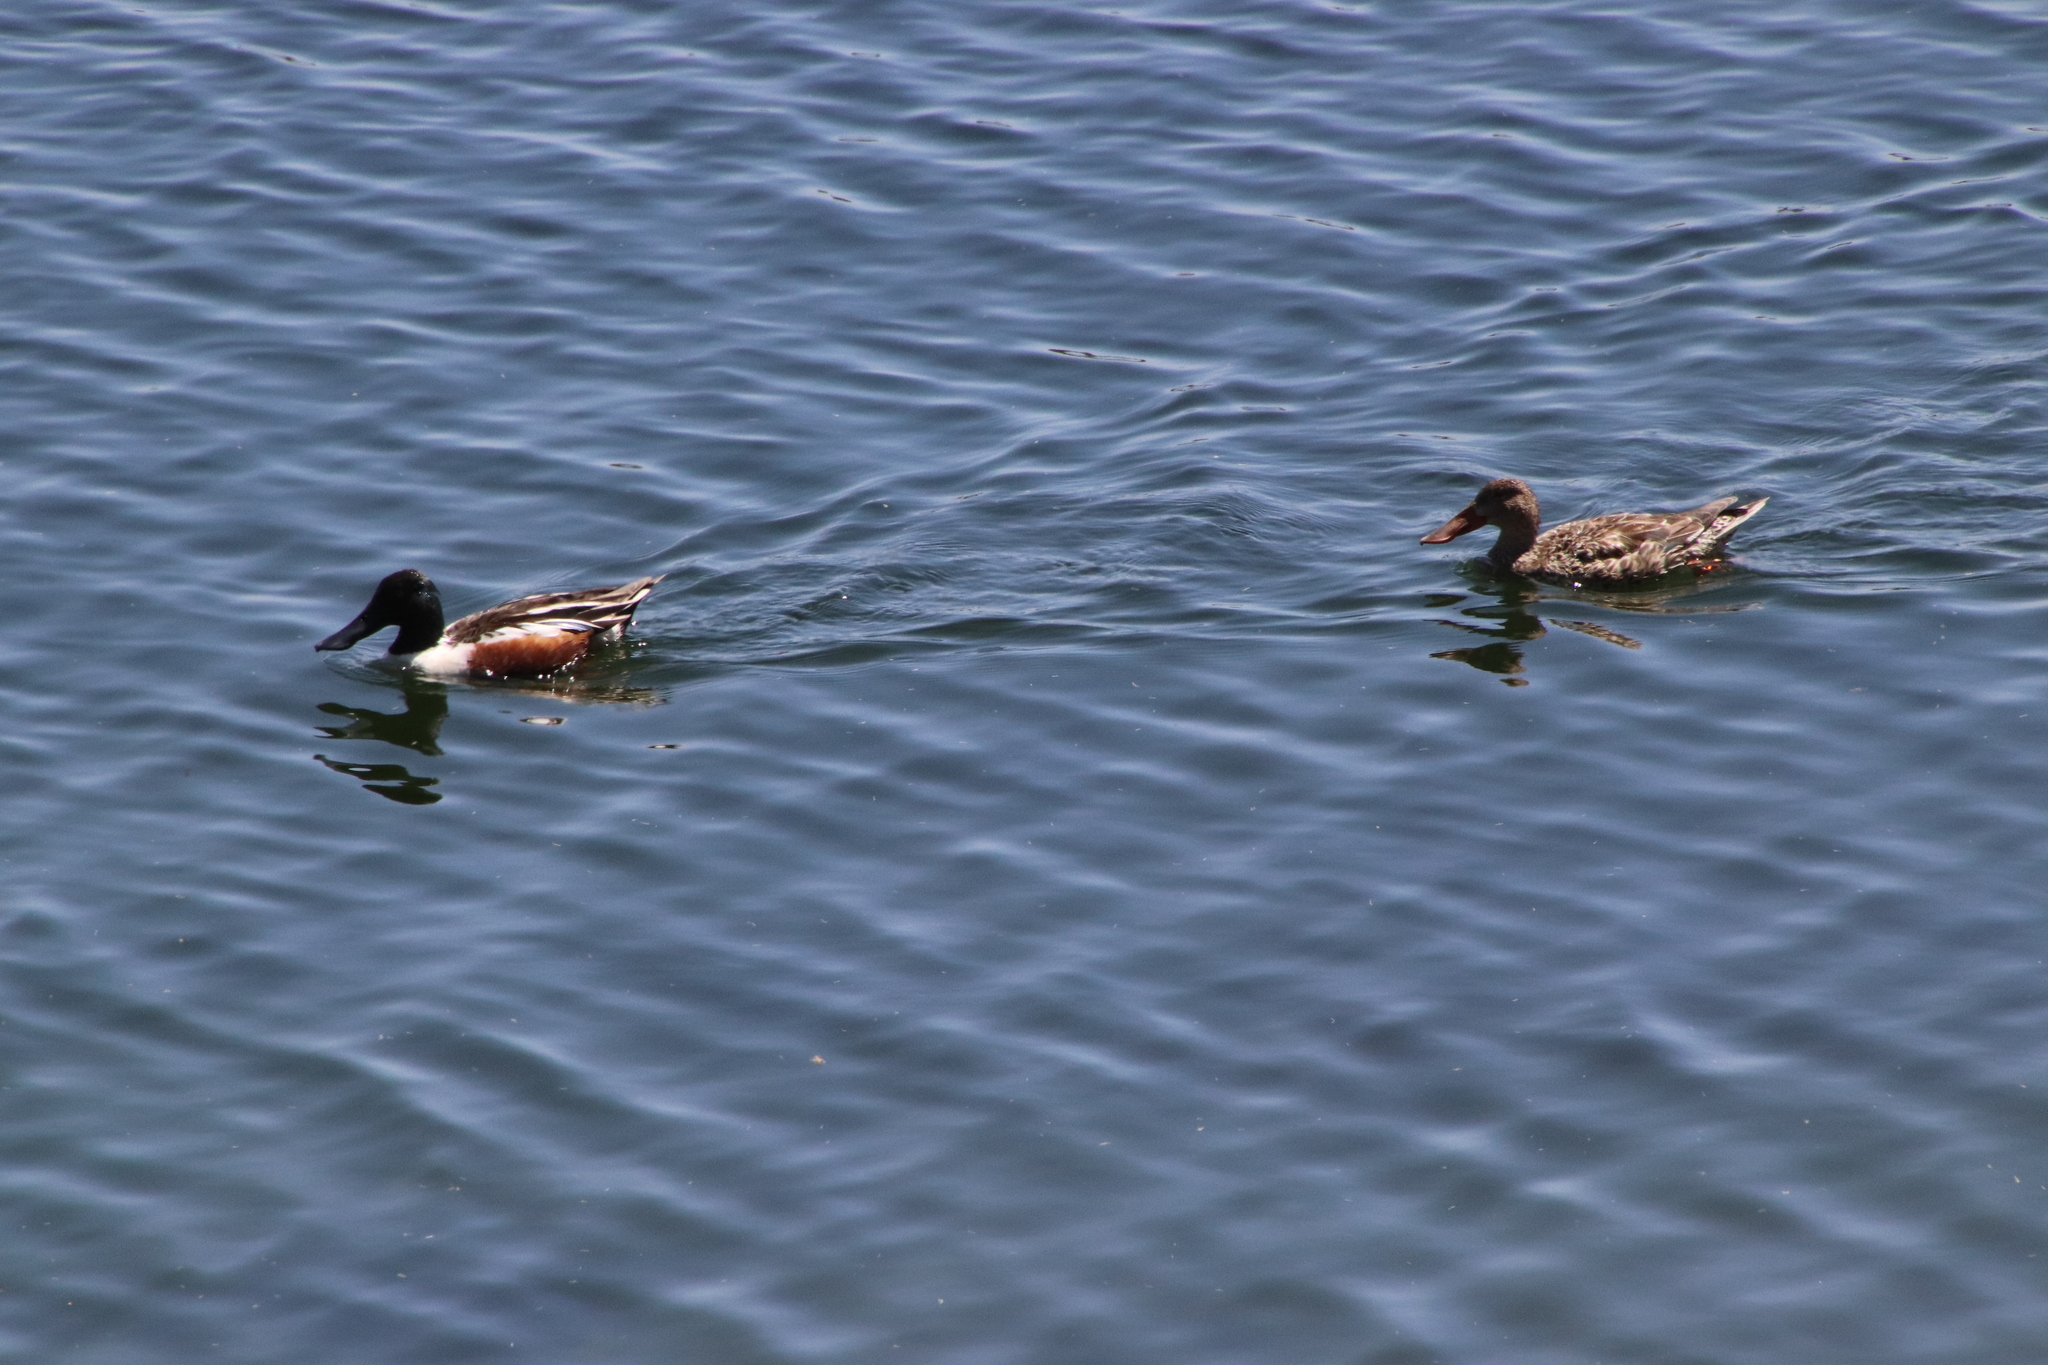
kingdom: Animalia
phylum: Chordata
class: Aves
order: Anseriformes
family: Anatidae
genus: Spatula
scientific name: Spatula clypeata
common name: Northern shoveler
